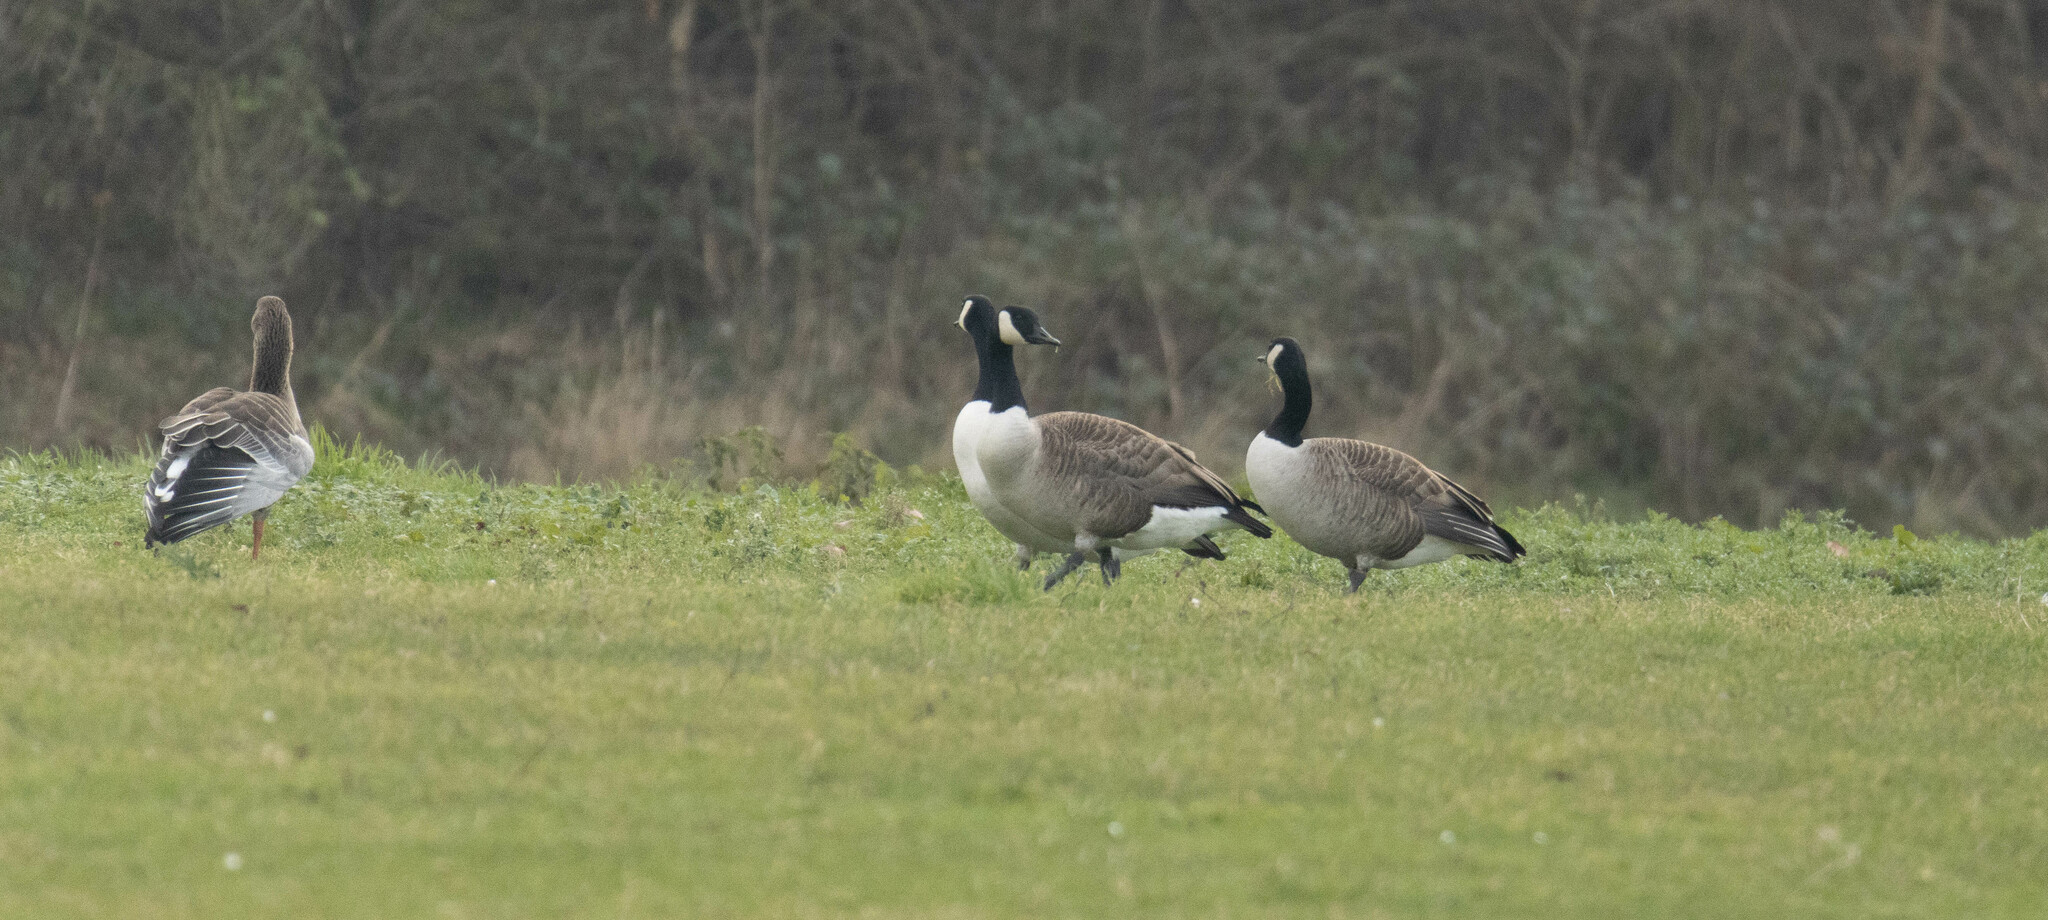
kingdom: Animalia
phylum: Chordata
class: Aves
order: Anseriformes
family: Anatidae
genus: Branta
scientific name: Branta canadensis
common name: Canada goose
